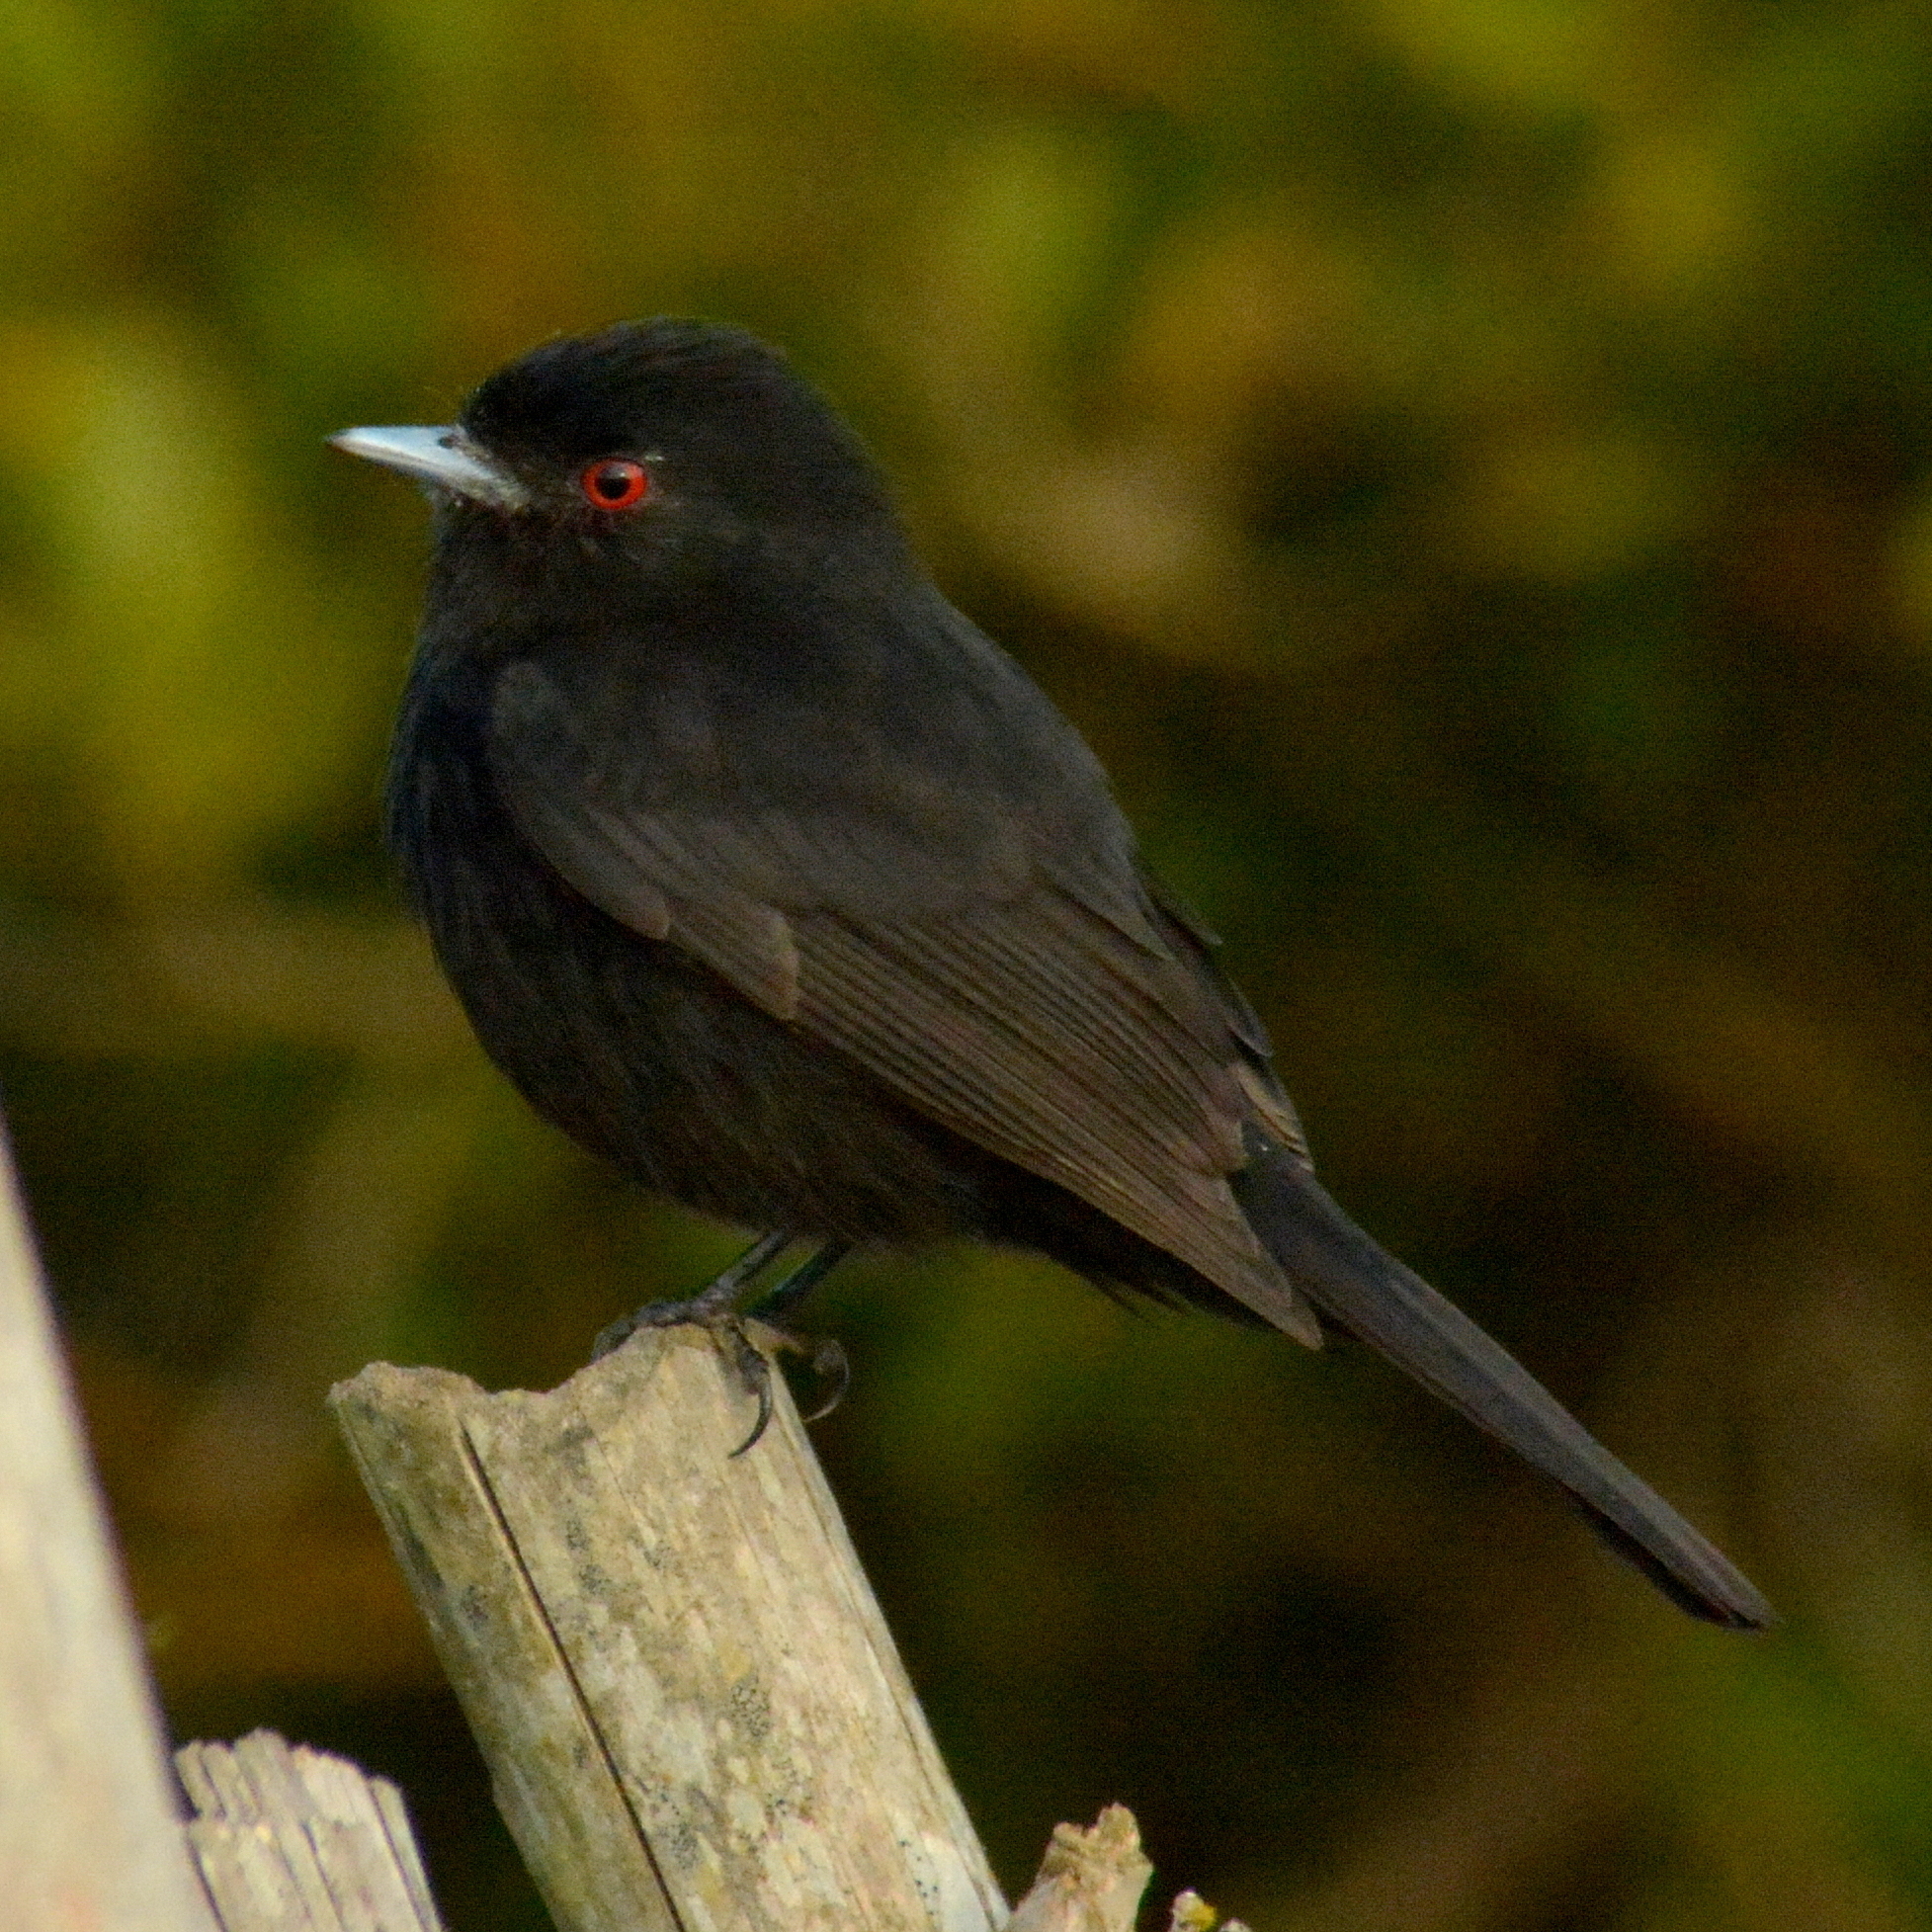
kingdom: Animalia
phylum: Chordata
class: Aves
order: Passeriformes
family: Tyrannidae
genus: Knipolegus
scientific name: Knipolegus cyanirostris
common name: Blue-billed black tyrant
